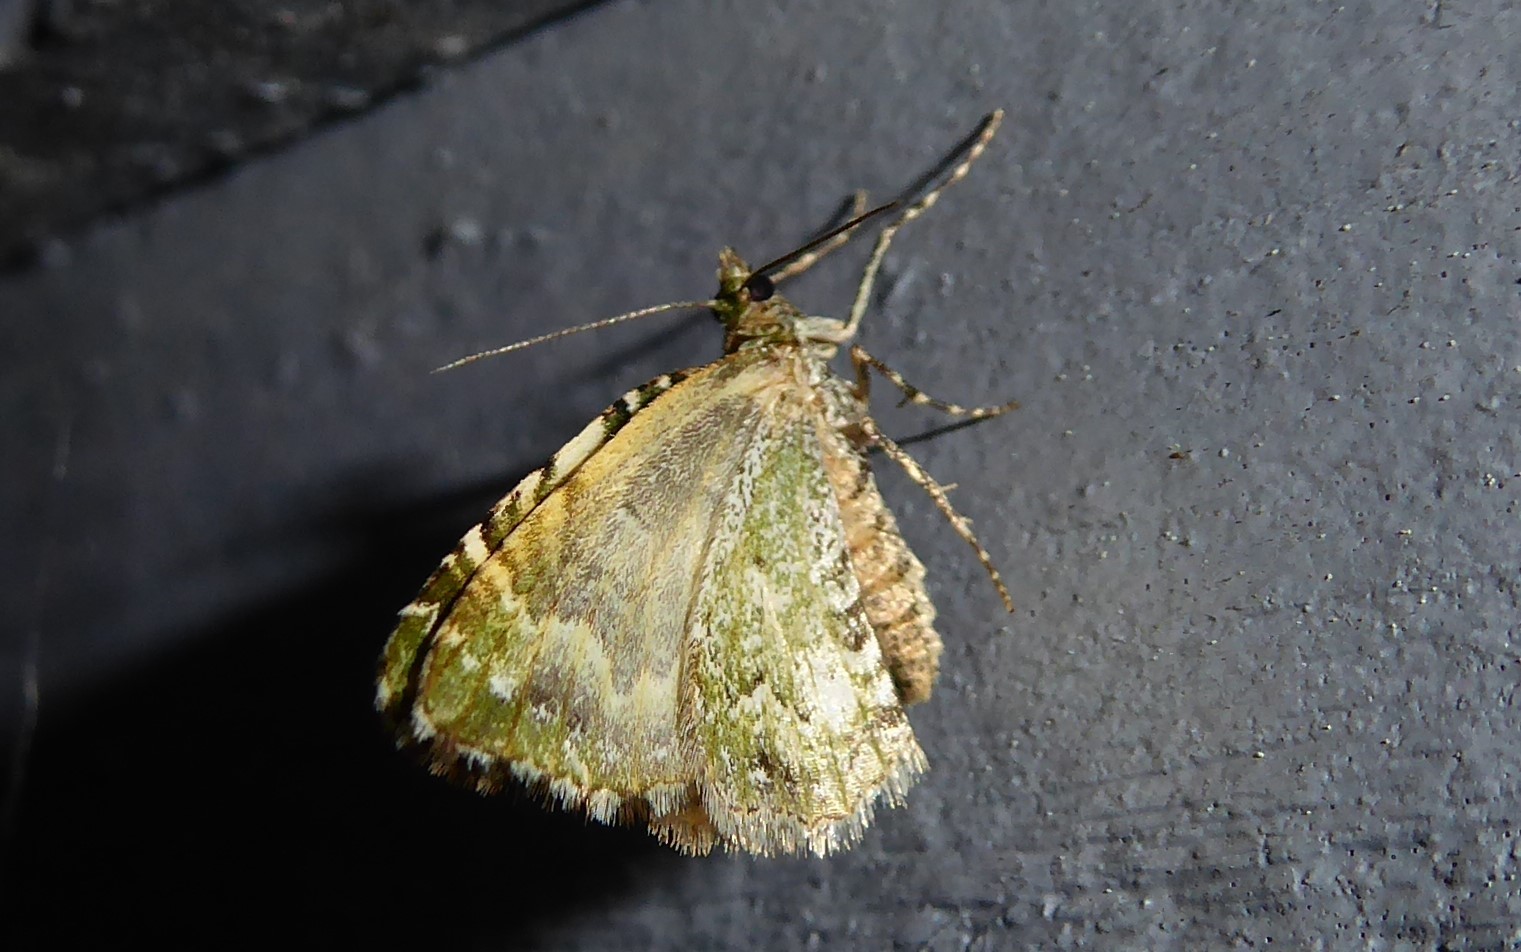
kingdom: Animalia
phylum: Arthropoda
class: Insecta
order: Lepidoptera
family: Geometridae
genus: Asaphodes
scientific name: Asaphodes beata
